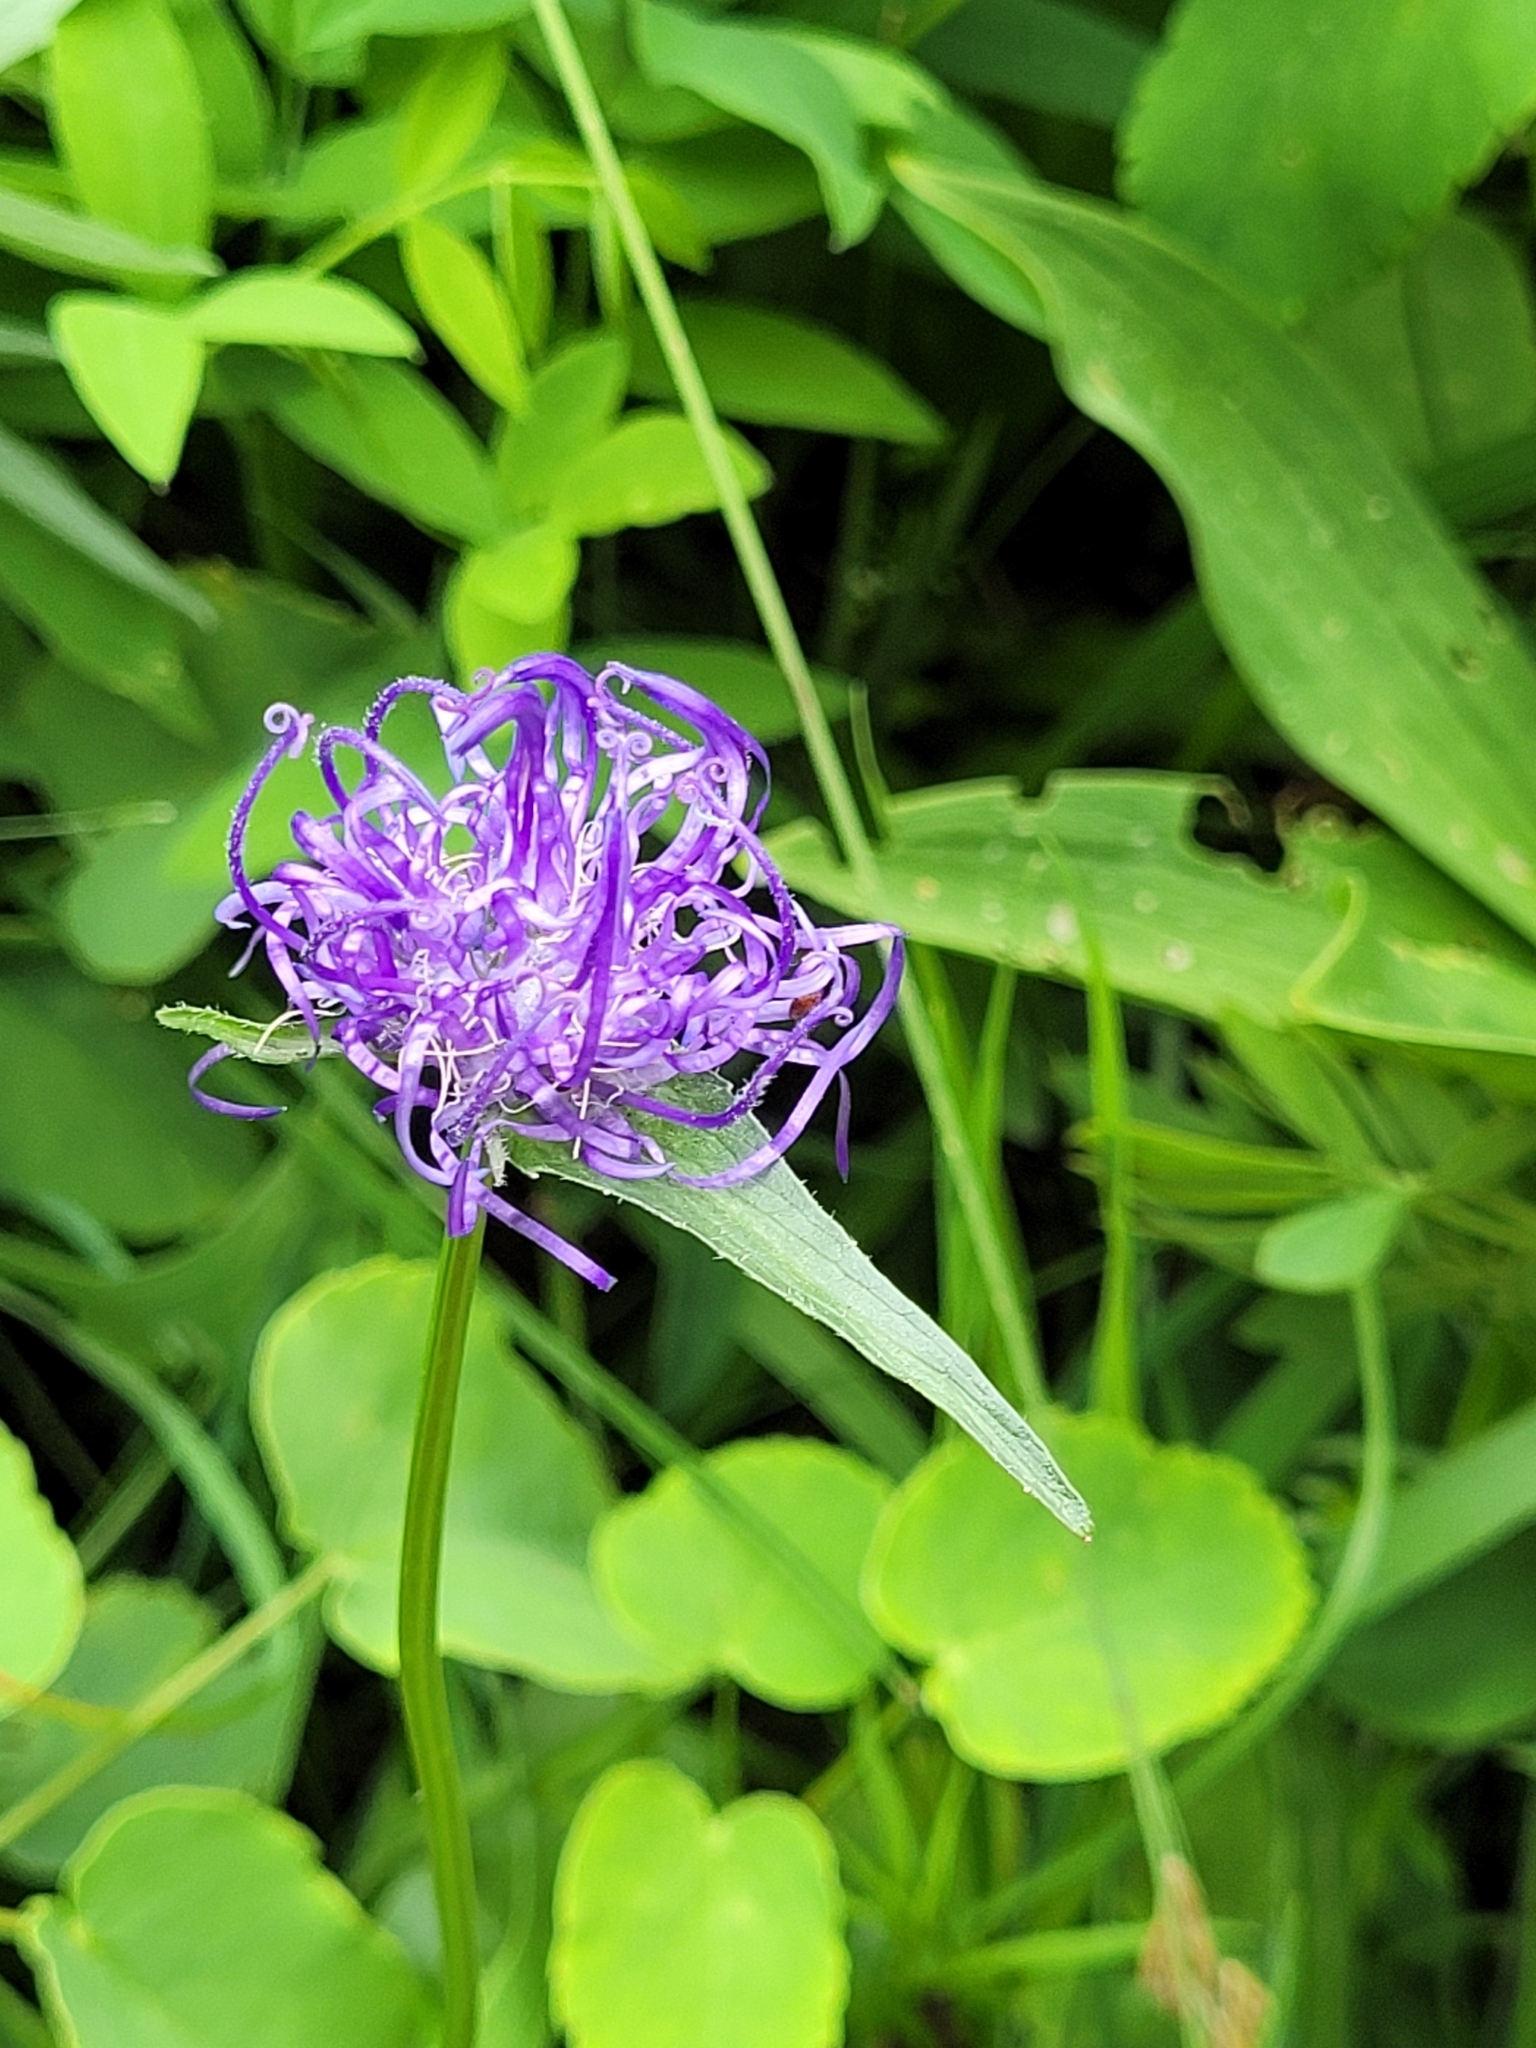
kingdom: Plantae
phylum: Tracheophyta
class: Magnoliopsida
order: Asterales
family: Campanulaceae
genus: Phyteuma
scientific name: Phyteuma orbiculare
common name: Round-headed rampion
